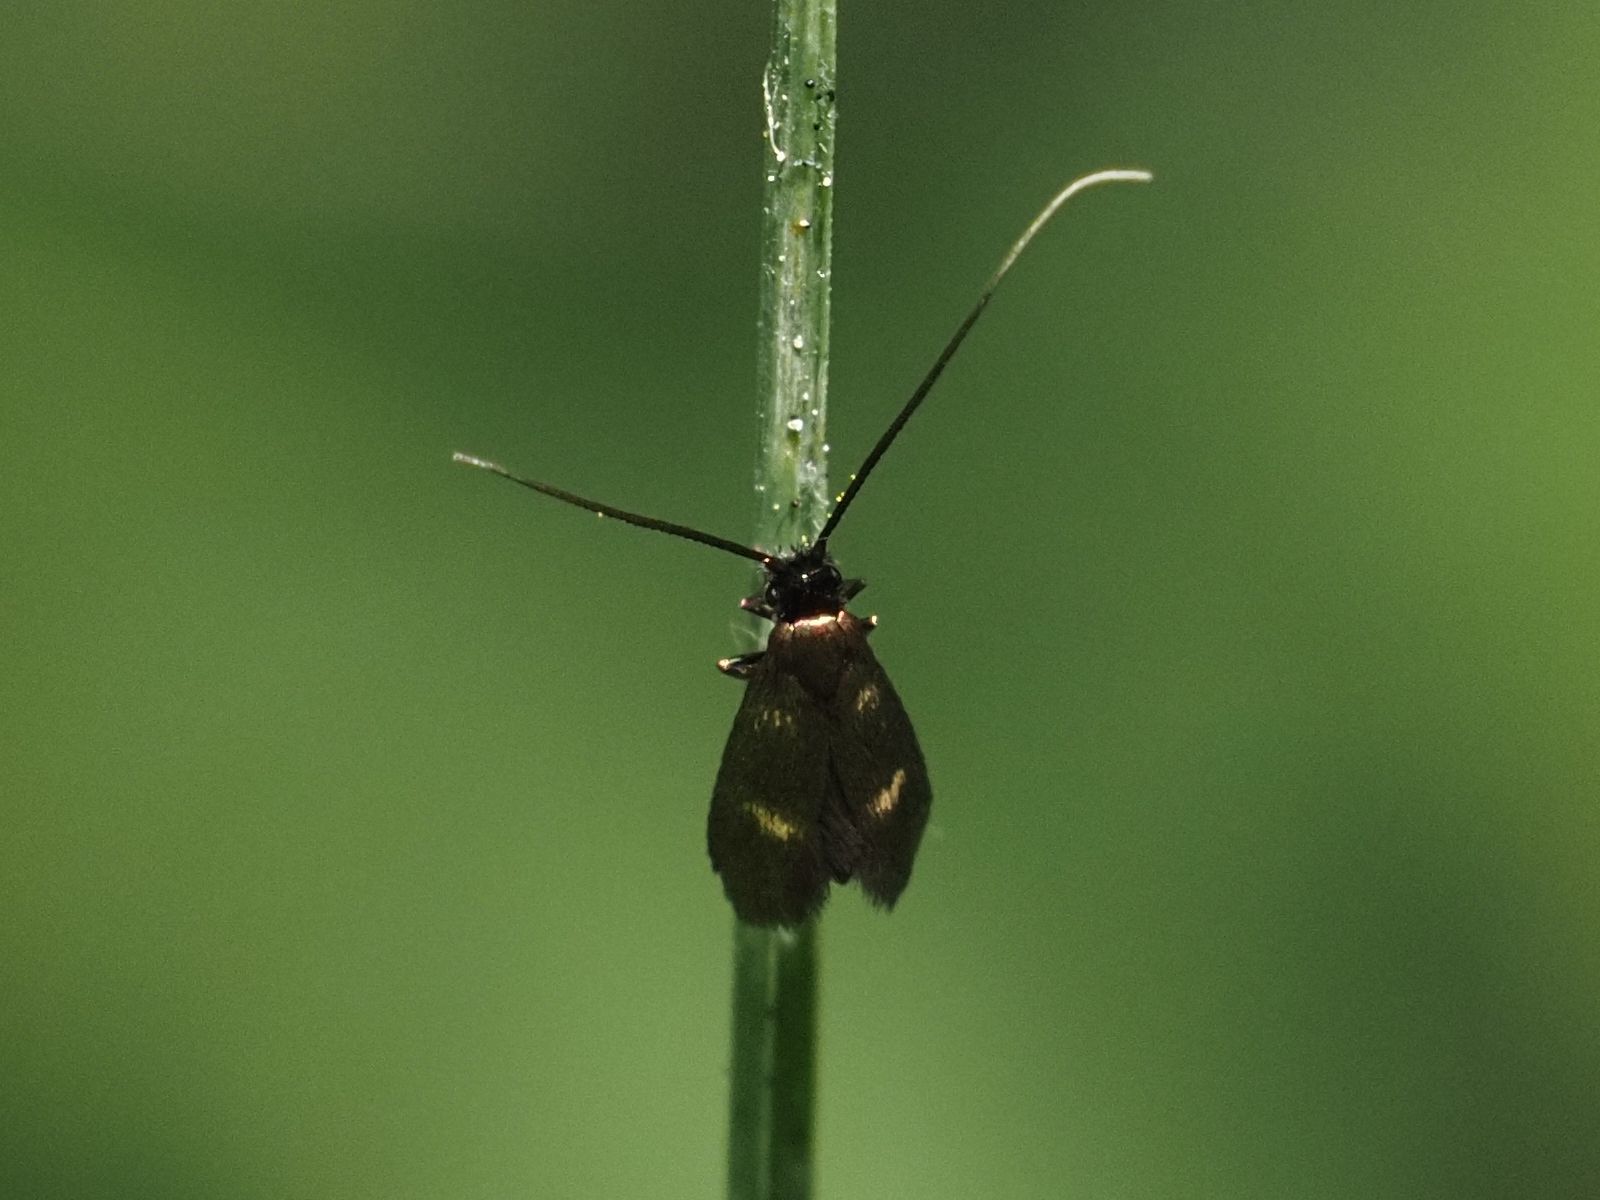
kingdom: Animalia
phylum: Arthropoda
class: Insecta
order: Lepidoptera
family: Adelidae
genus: Cauchas
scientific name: Cauchas fibulella
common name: Little long-horn
